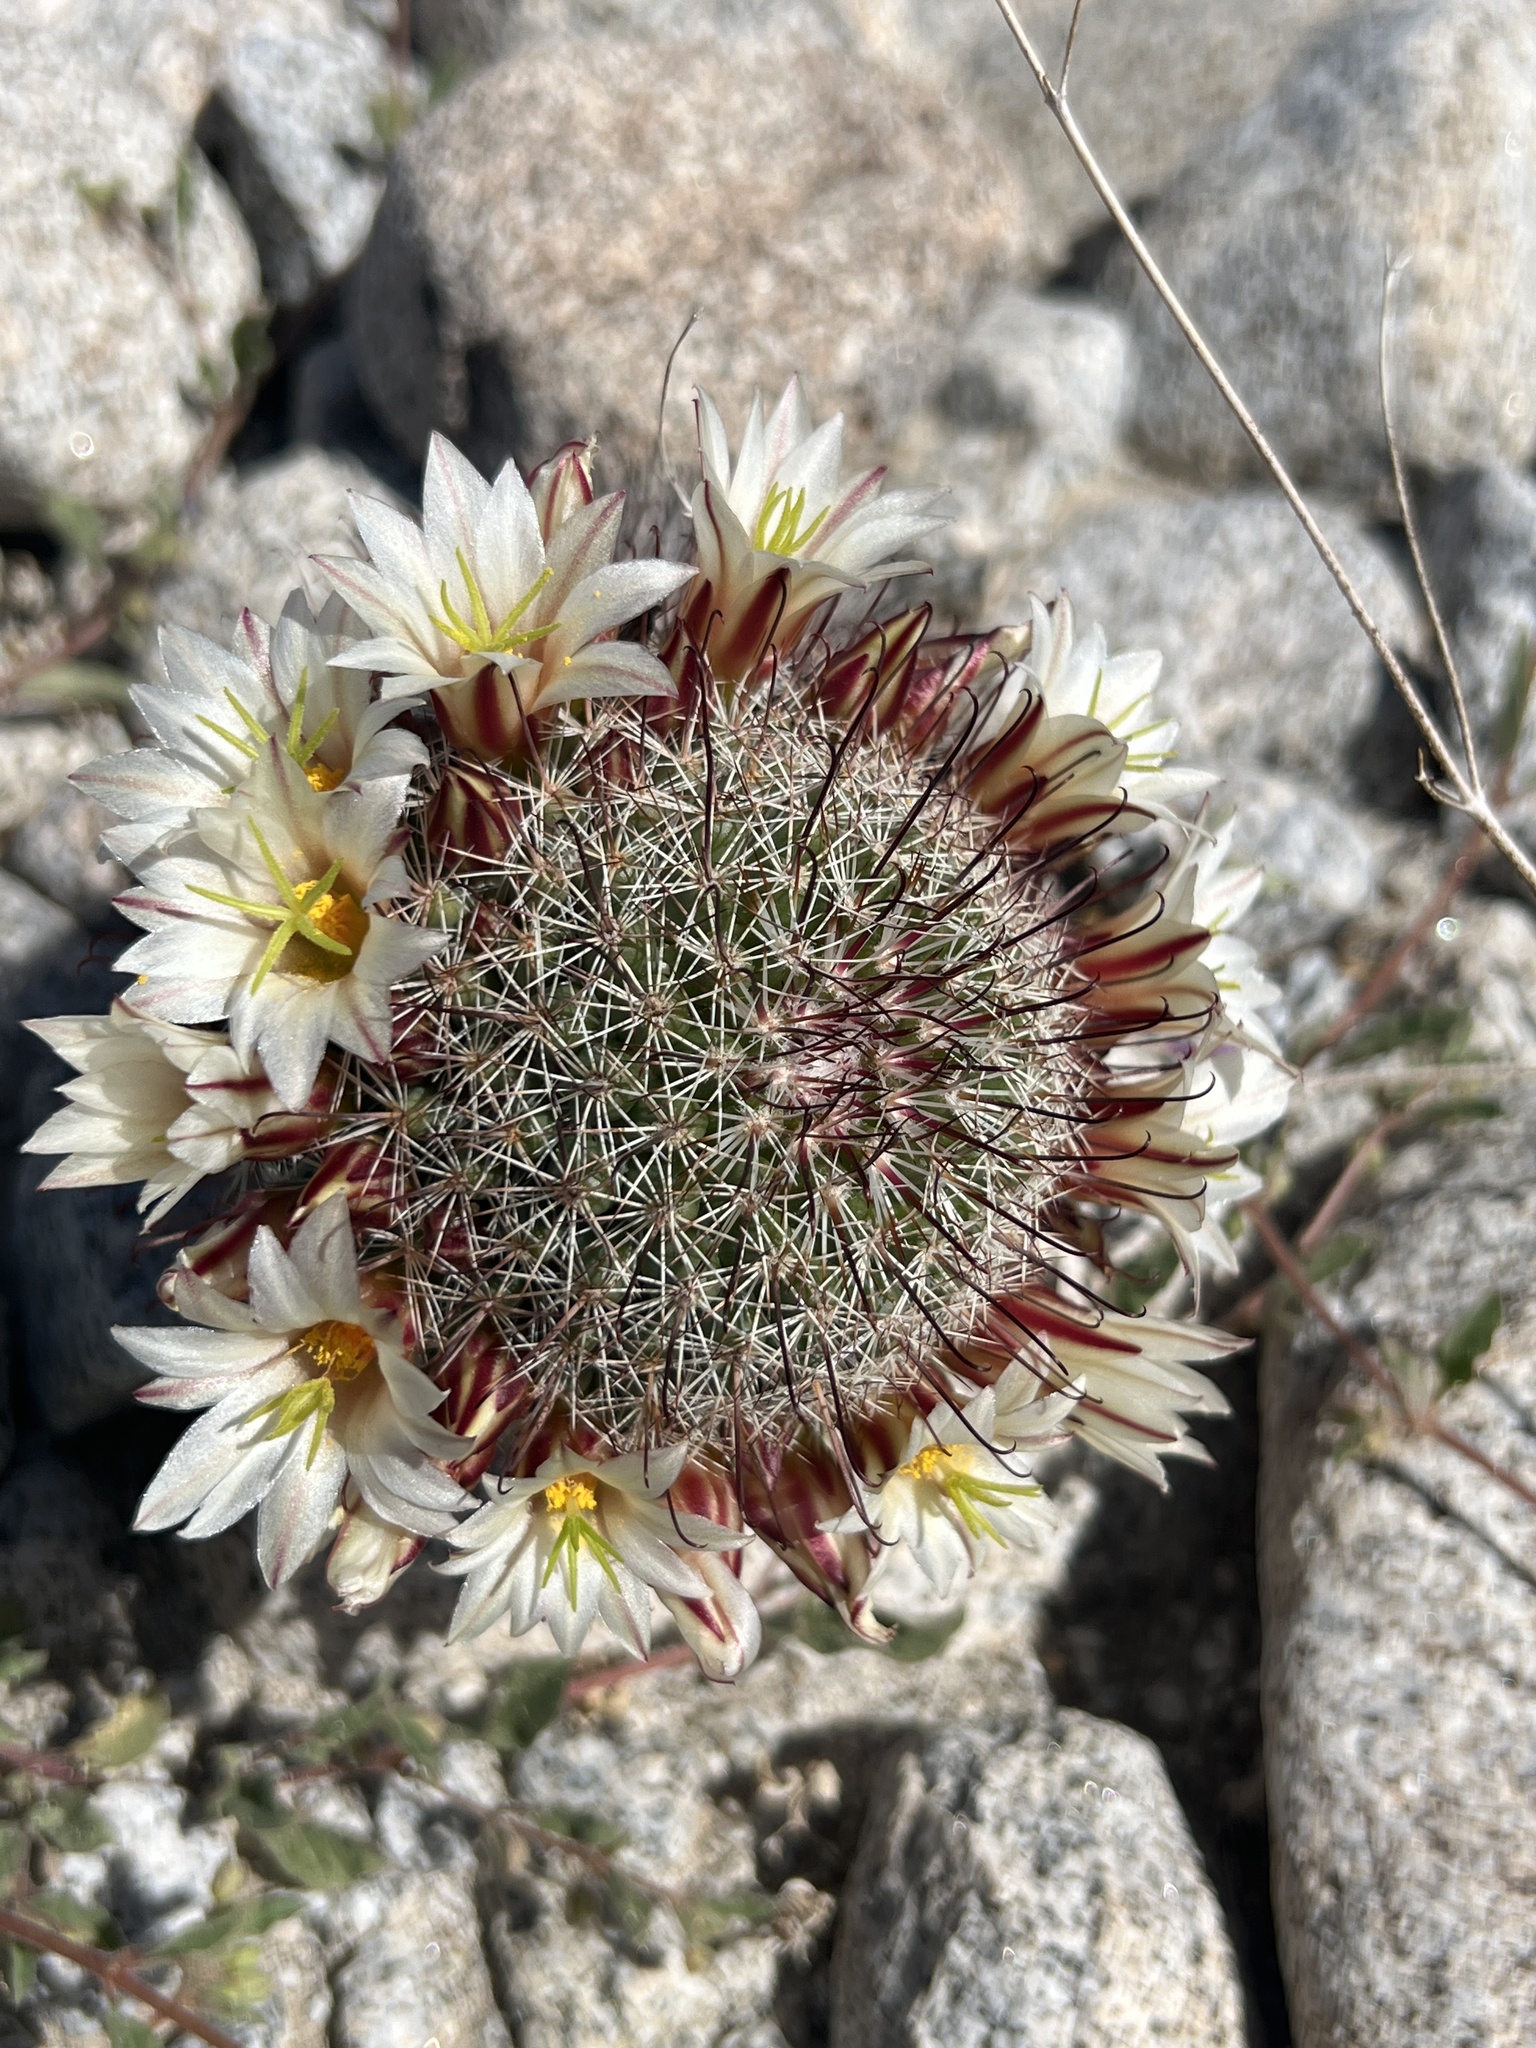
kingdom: Plantae
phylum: Tracheophyta
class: Magnoliopsida
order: Caryophyllales
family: Cactaceae
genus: Cochemiea
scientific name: Cochemiea dioica
